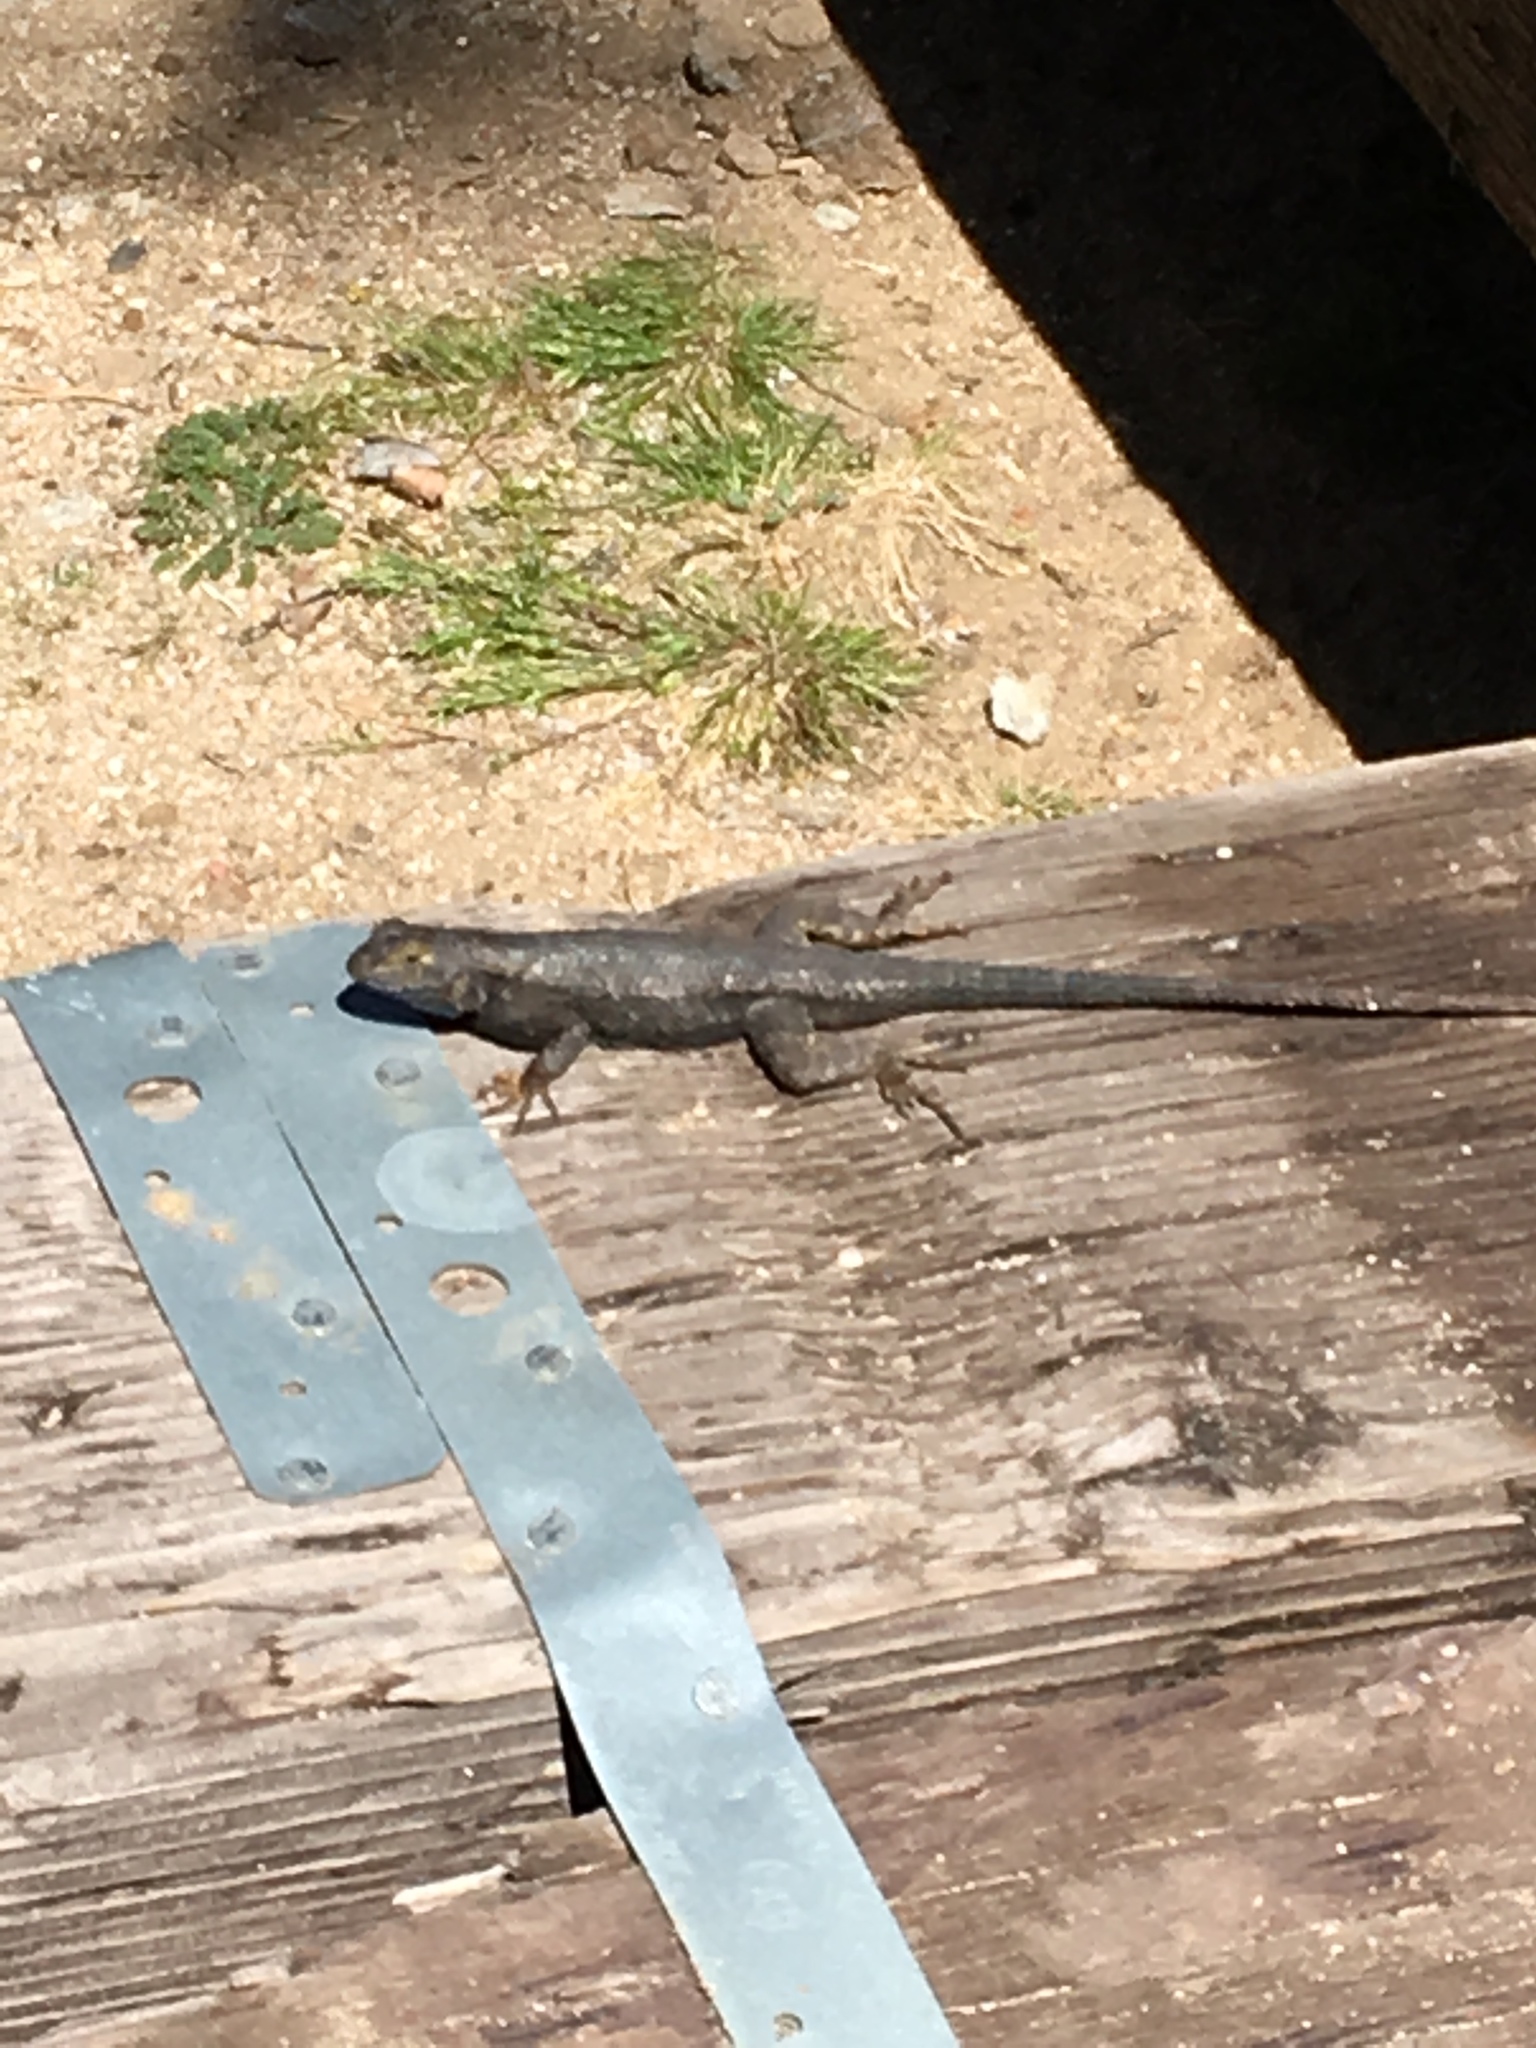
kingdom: Animalia
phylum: Chordata
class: Squamata
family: Phrynosomatidae
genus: Sceloporus
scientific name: Sceloporus occidentalis
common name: Western fence lizard
